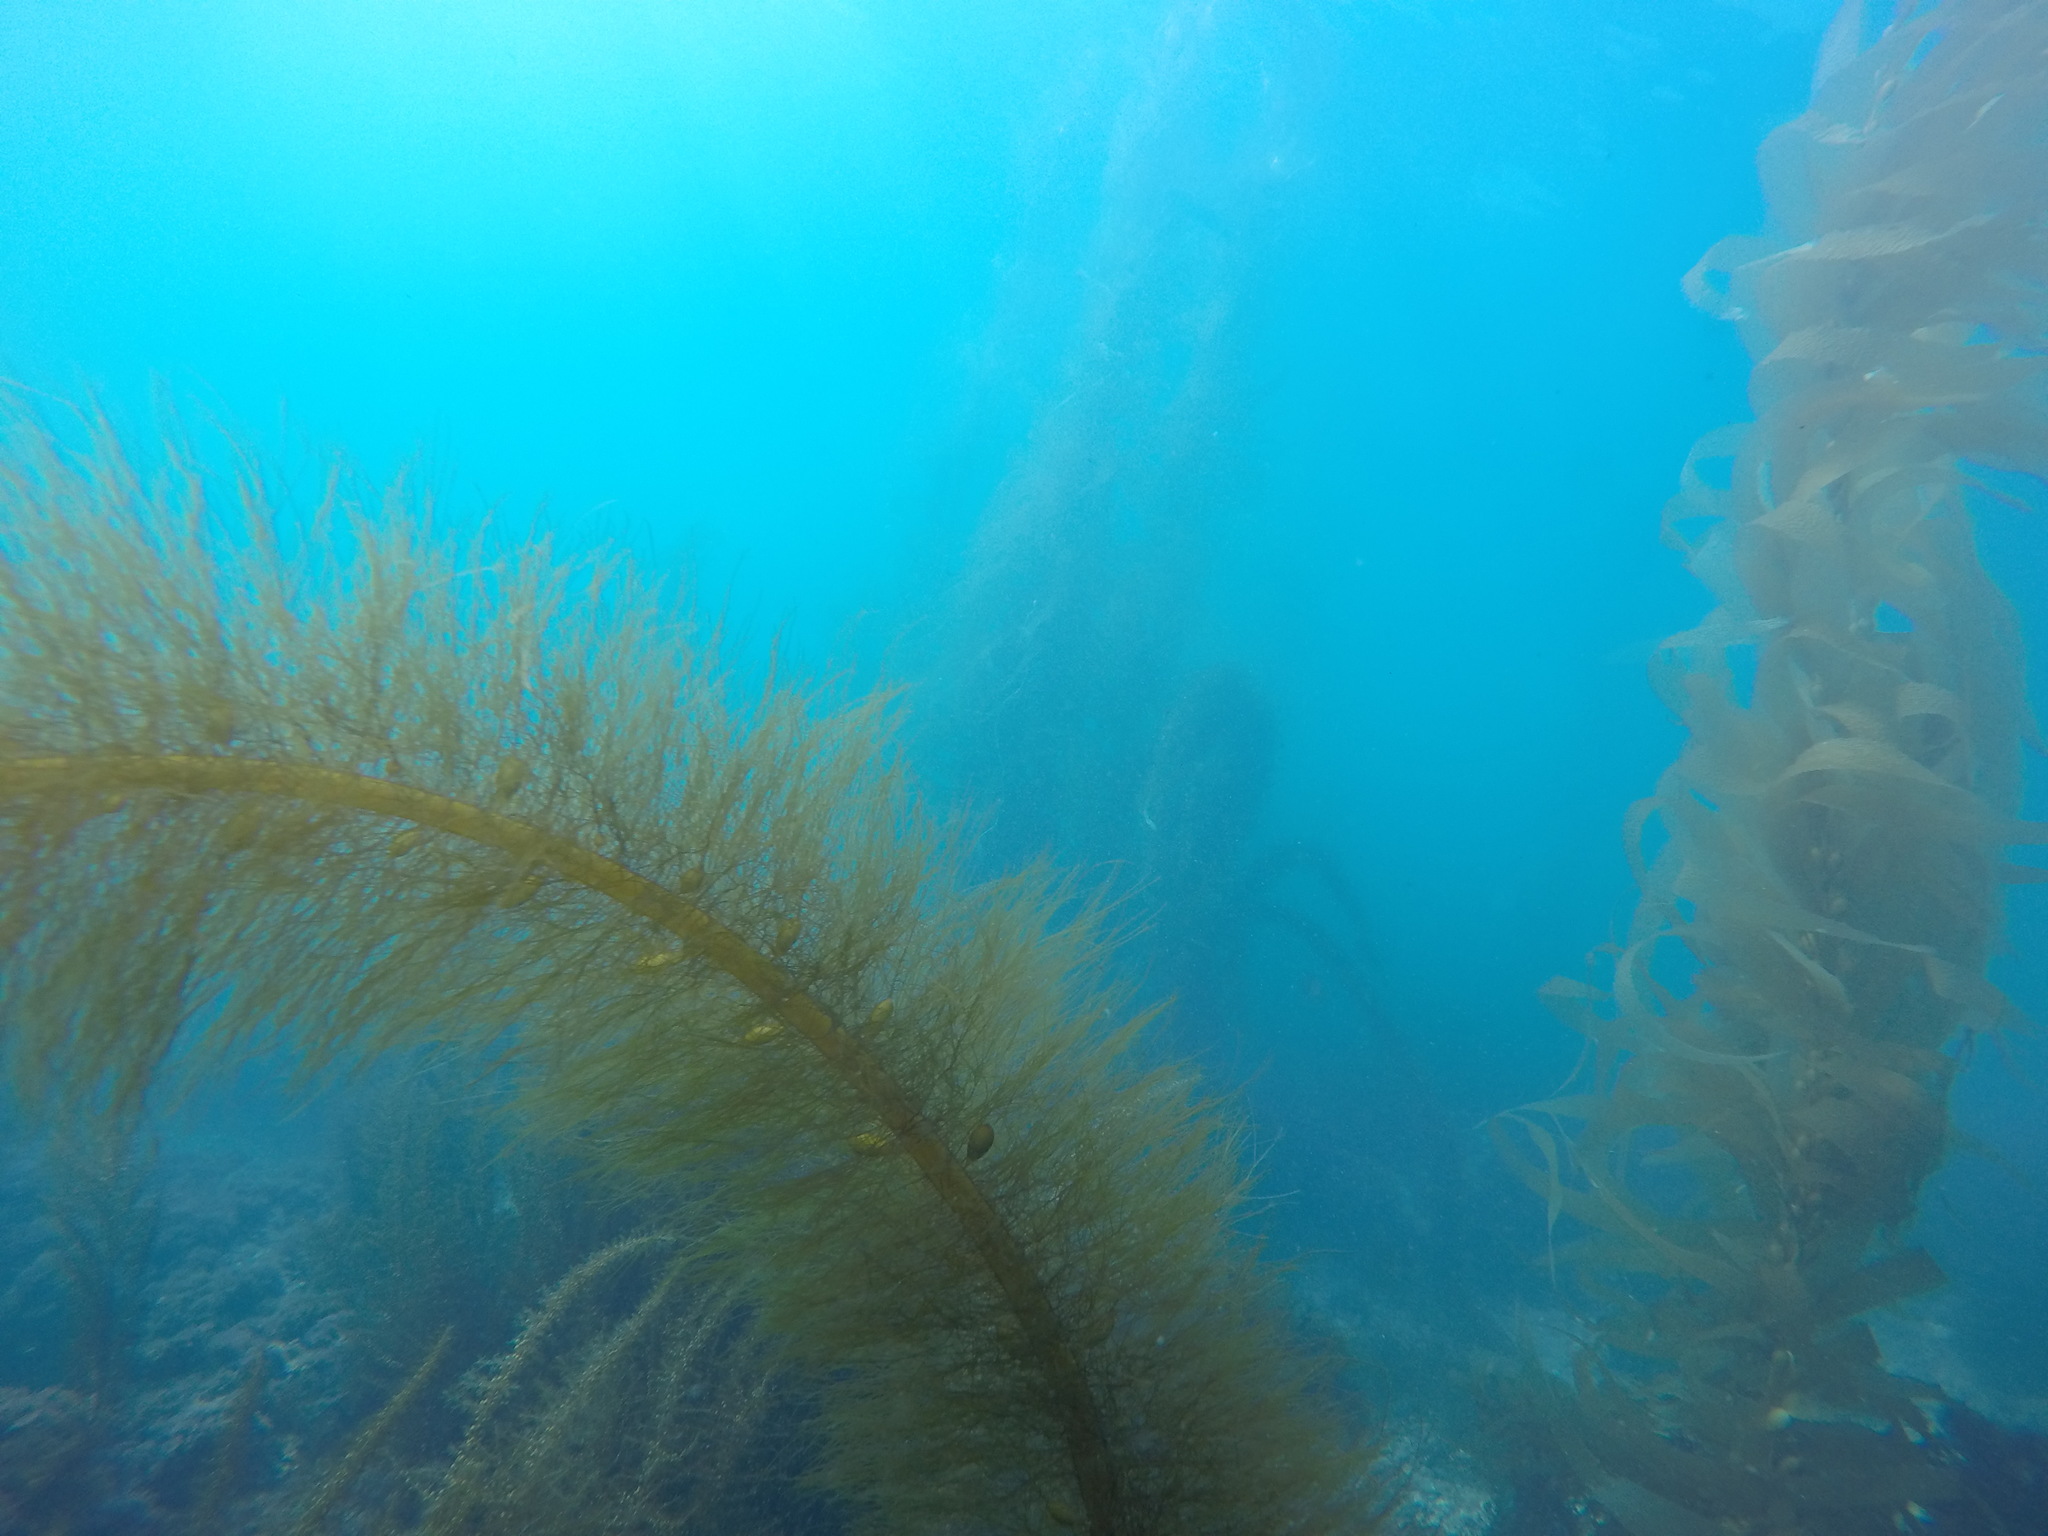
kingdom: Chromista
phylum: Ochrophyta
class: Phaeophyceae
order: Laminariales
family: Lessoniaceae
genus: Egregia
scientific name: Egregia menziesii
